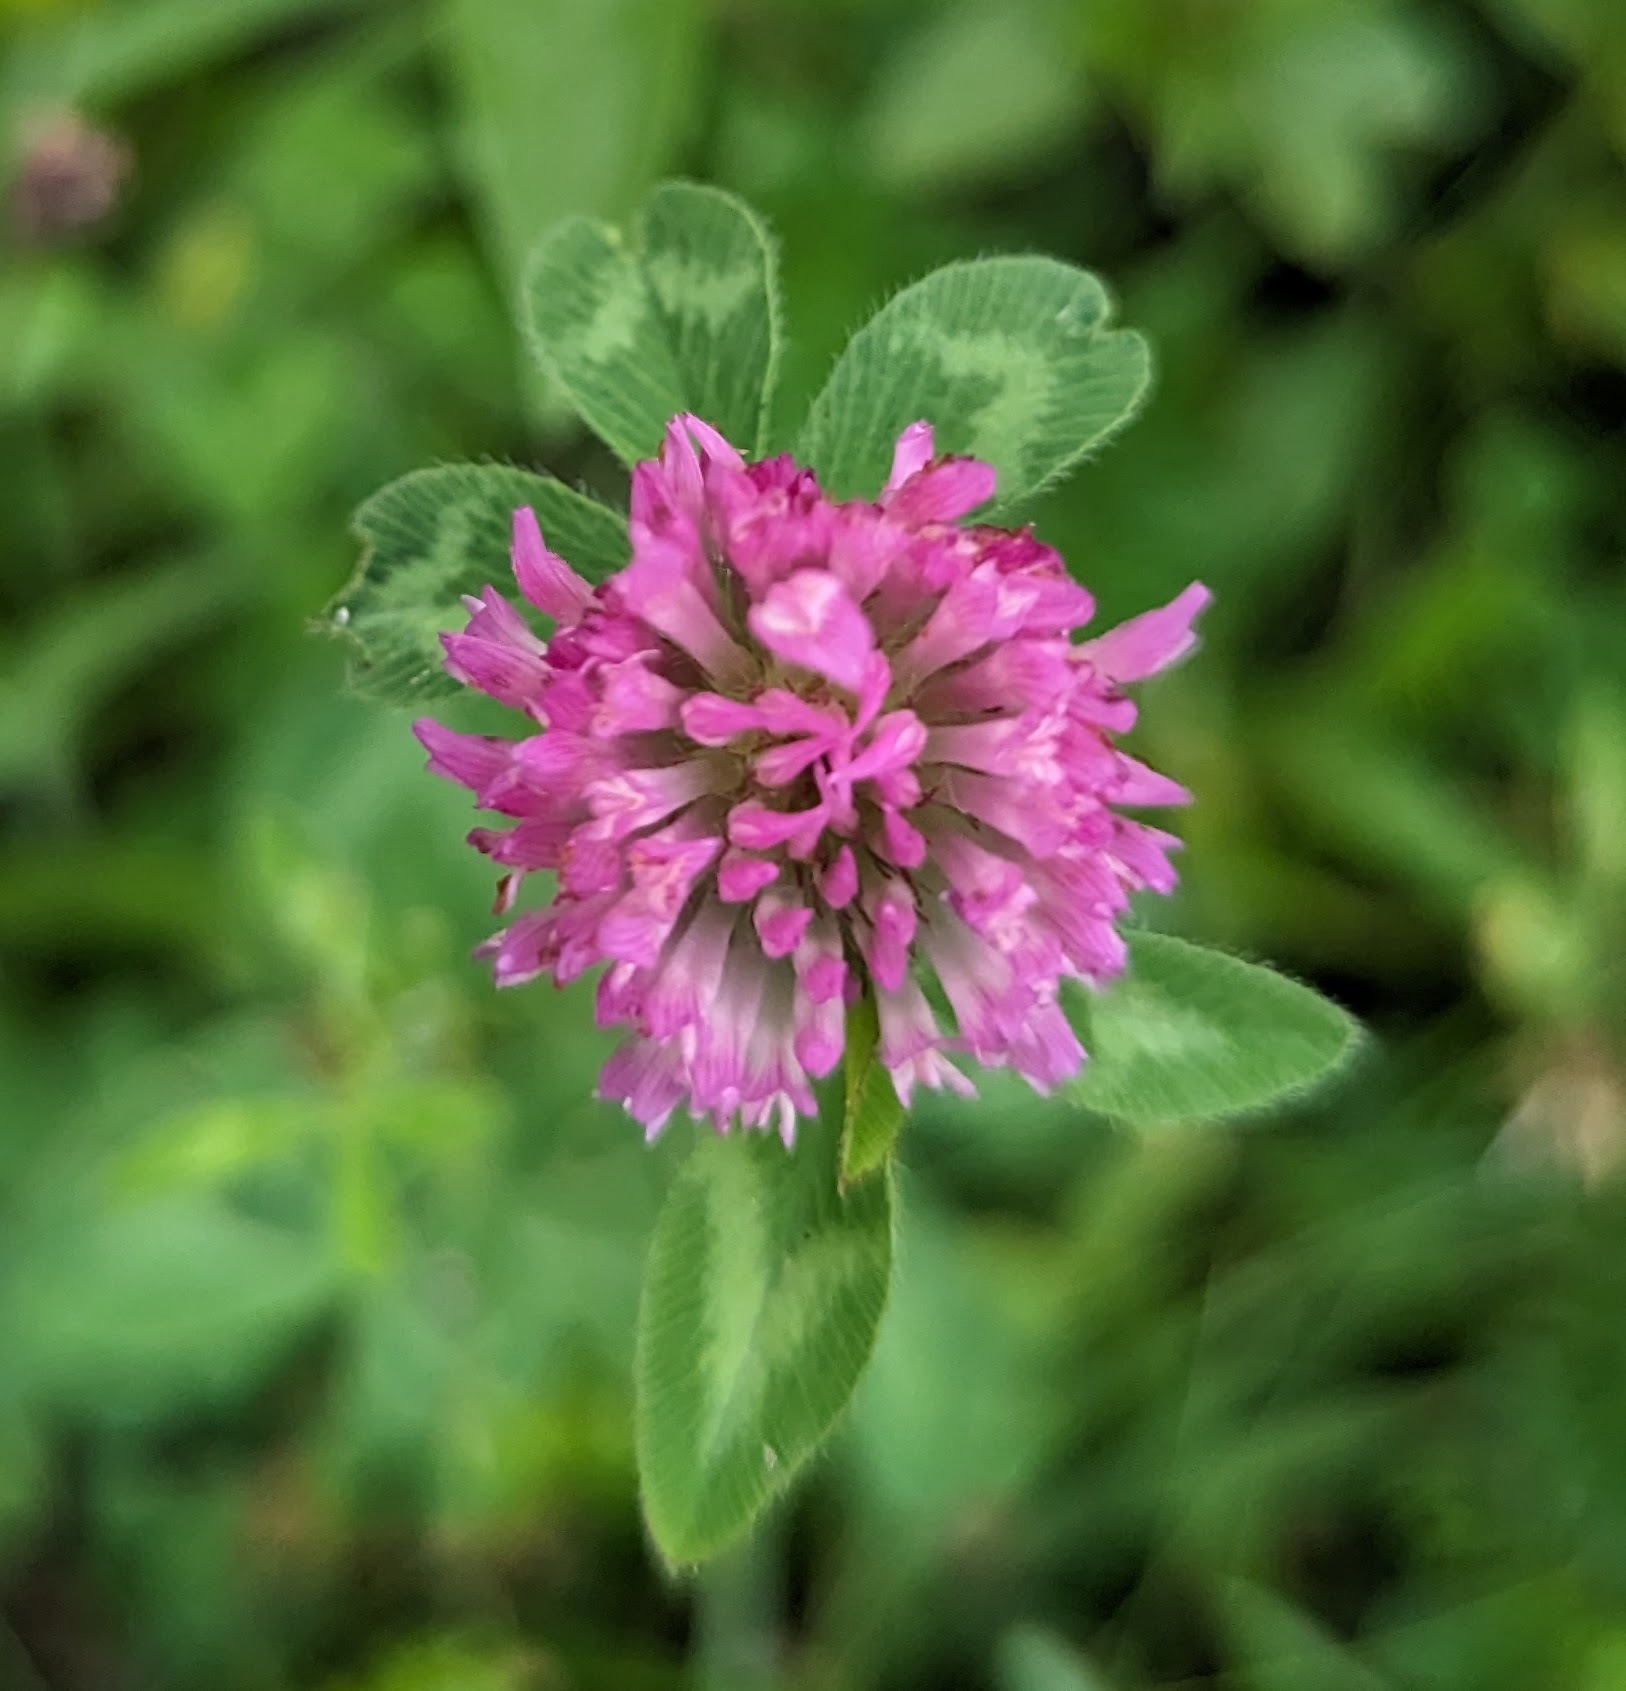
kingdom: Plantae
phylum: Tracheophyta
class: Magnoliopsida
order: Fabales
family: Fabaceae
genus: Trifolium
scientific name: Trifolium pratense
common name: Red clover
